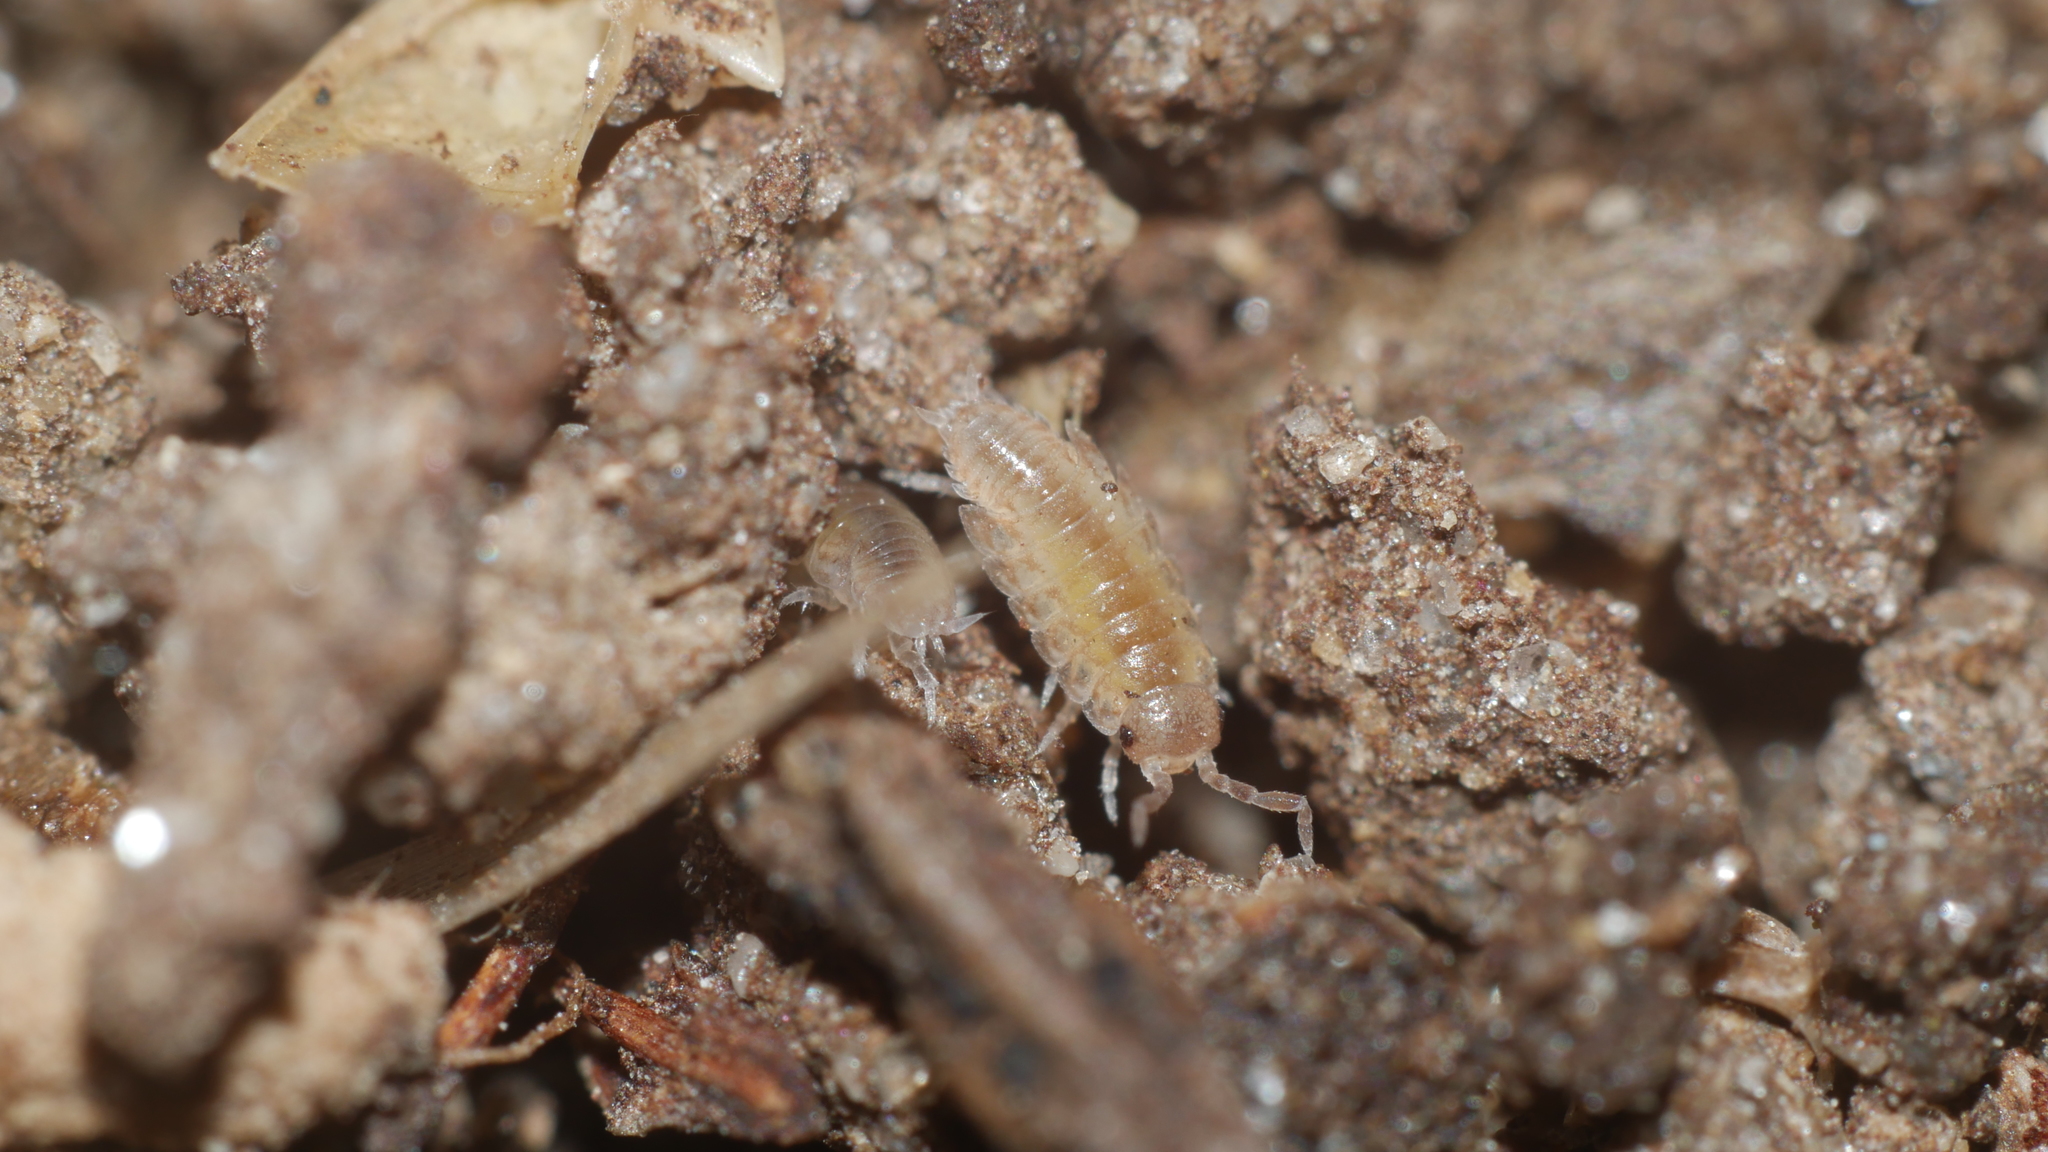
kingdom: Animalia
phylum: Arthropoda
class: Malacostraca
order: Isopoda
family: Porcellionidae
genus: Porcellio
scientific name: Porcellio scaber
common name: Common rough woodlouse
